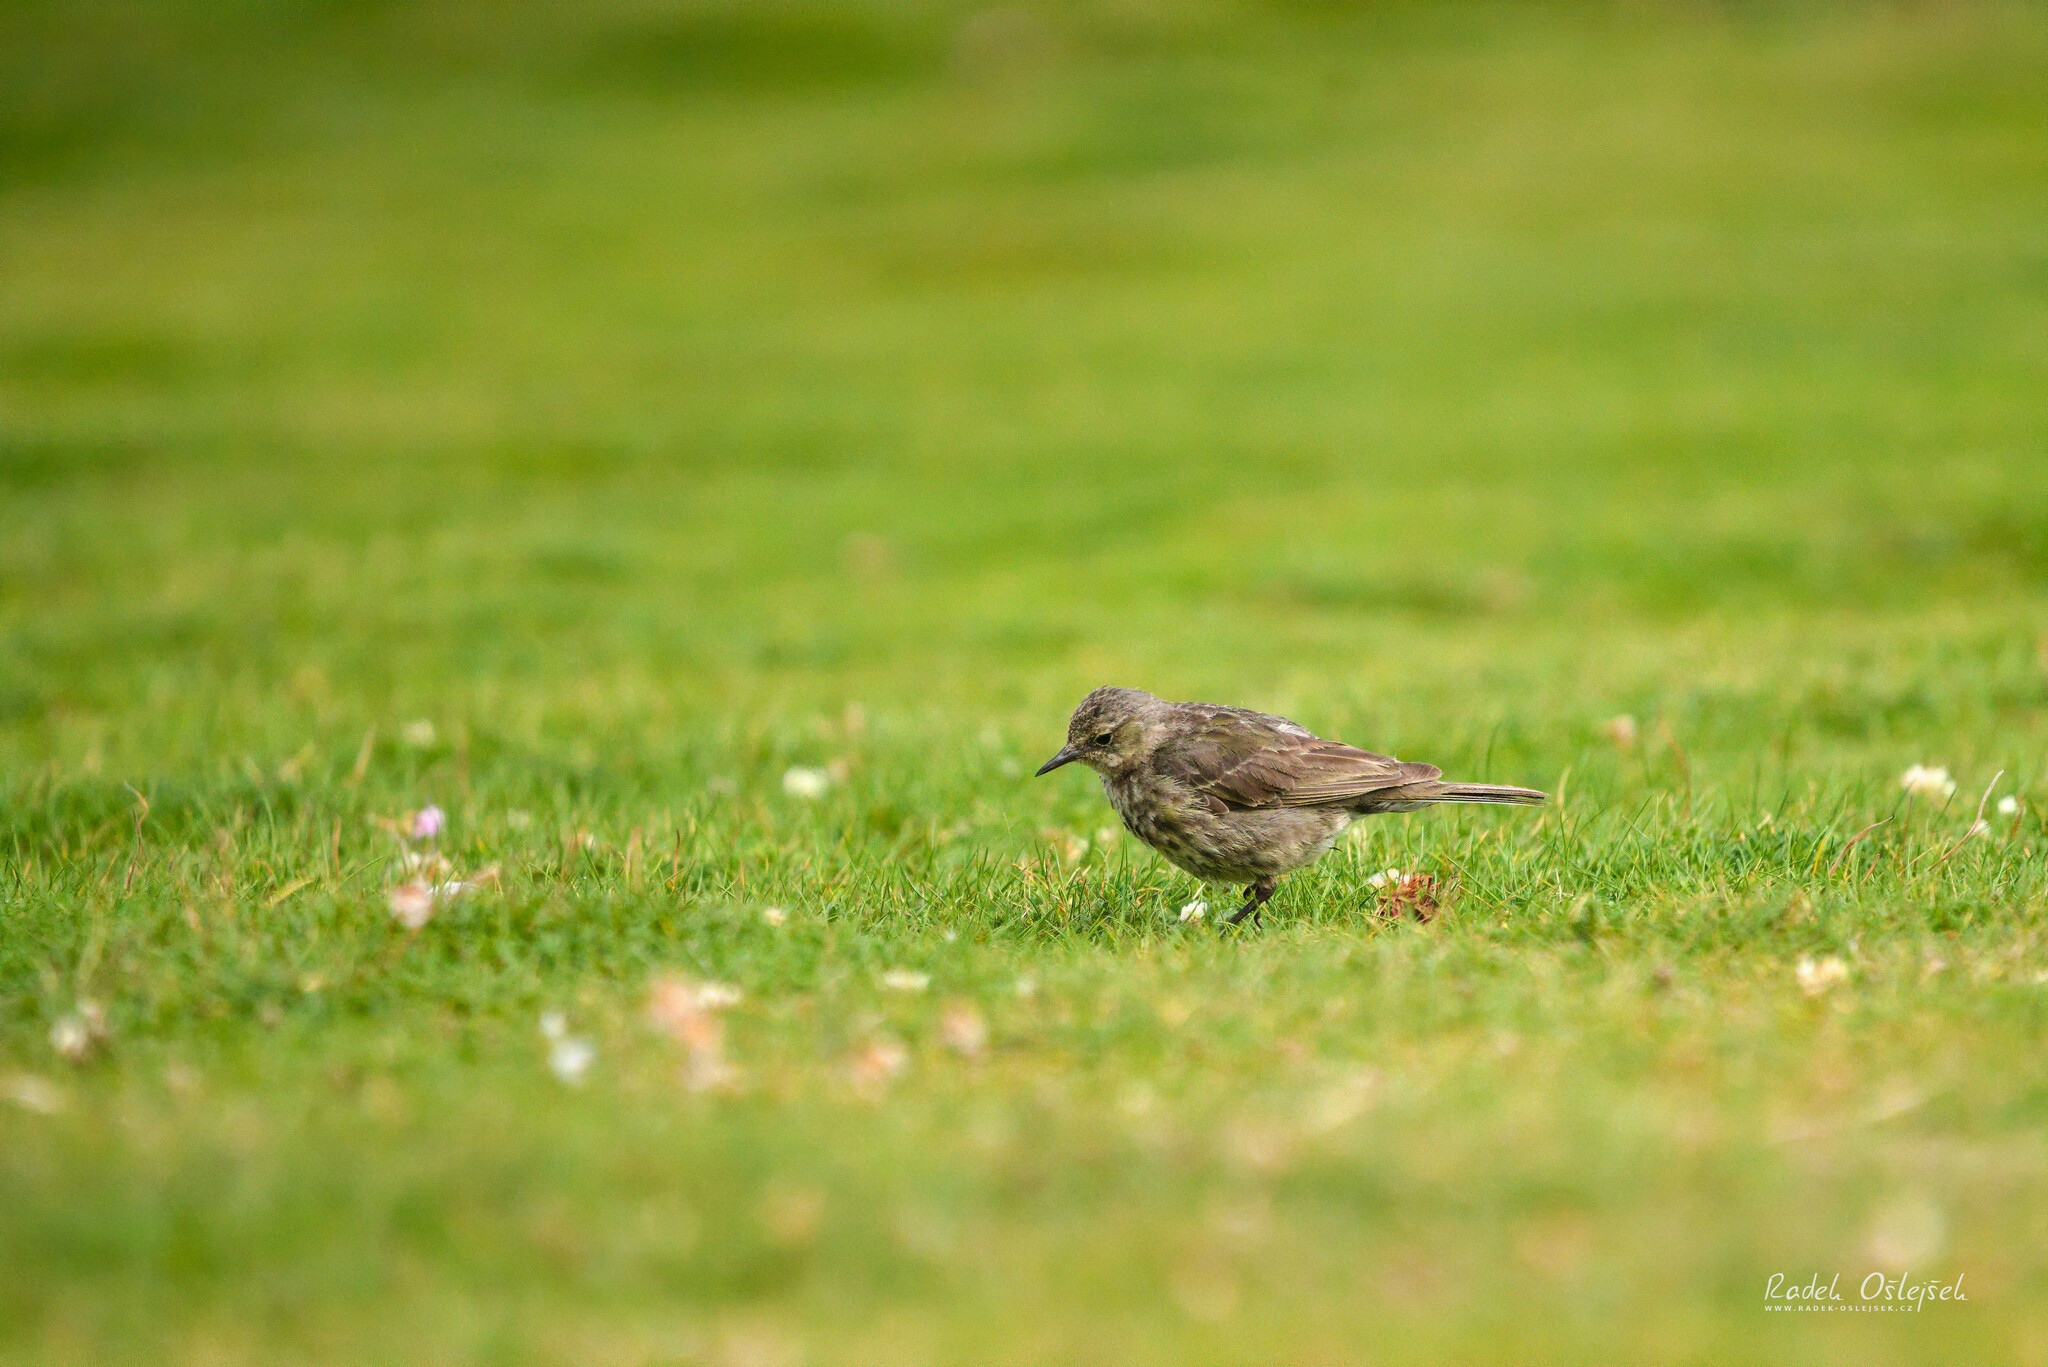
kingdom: Animalia
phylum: Chordata
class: Aves
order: Passeriformes
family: Motacillidae
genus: Anthus
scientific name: Anthus petrosus
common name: Eurasian rock pipit
